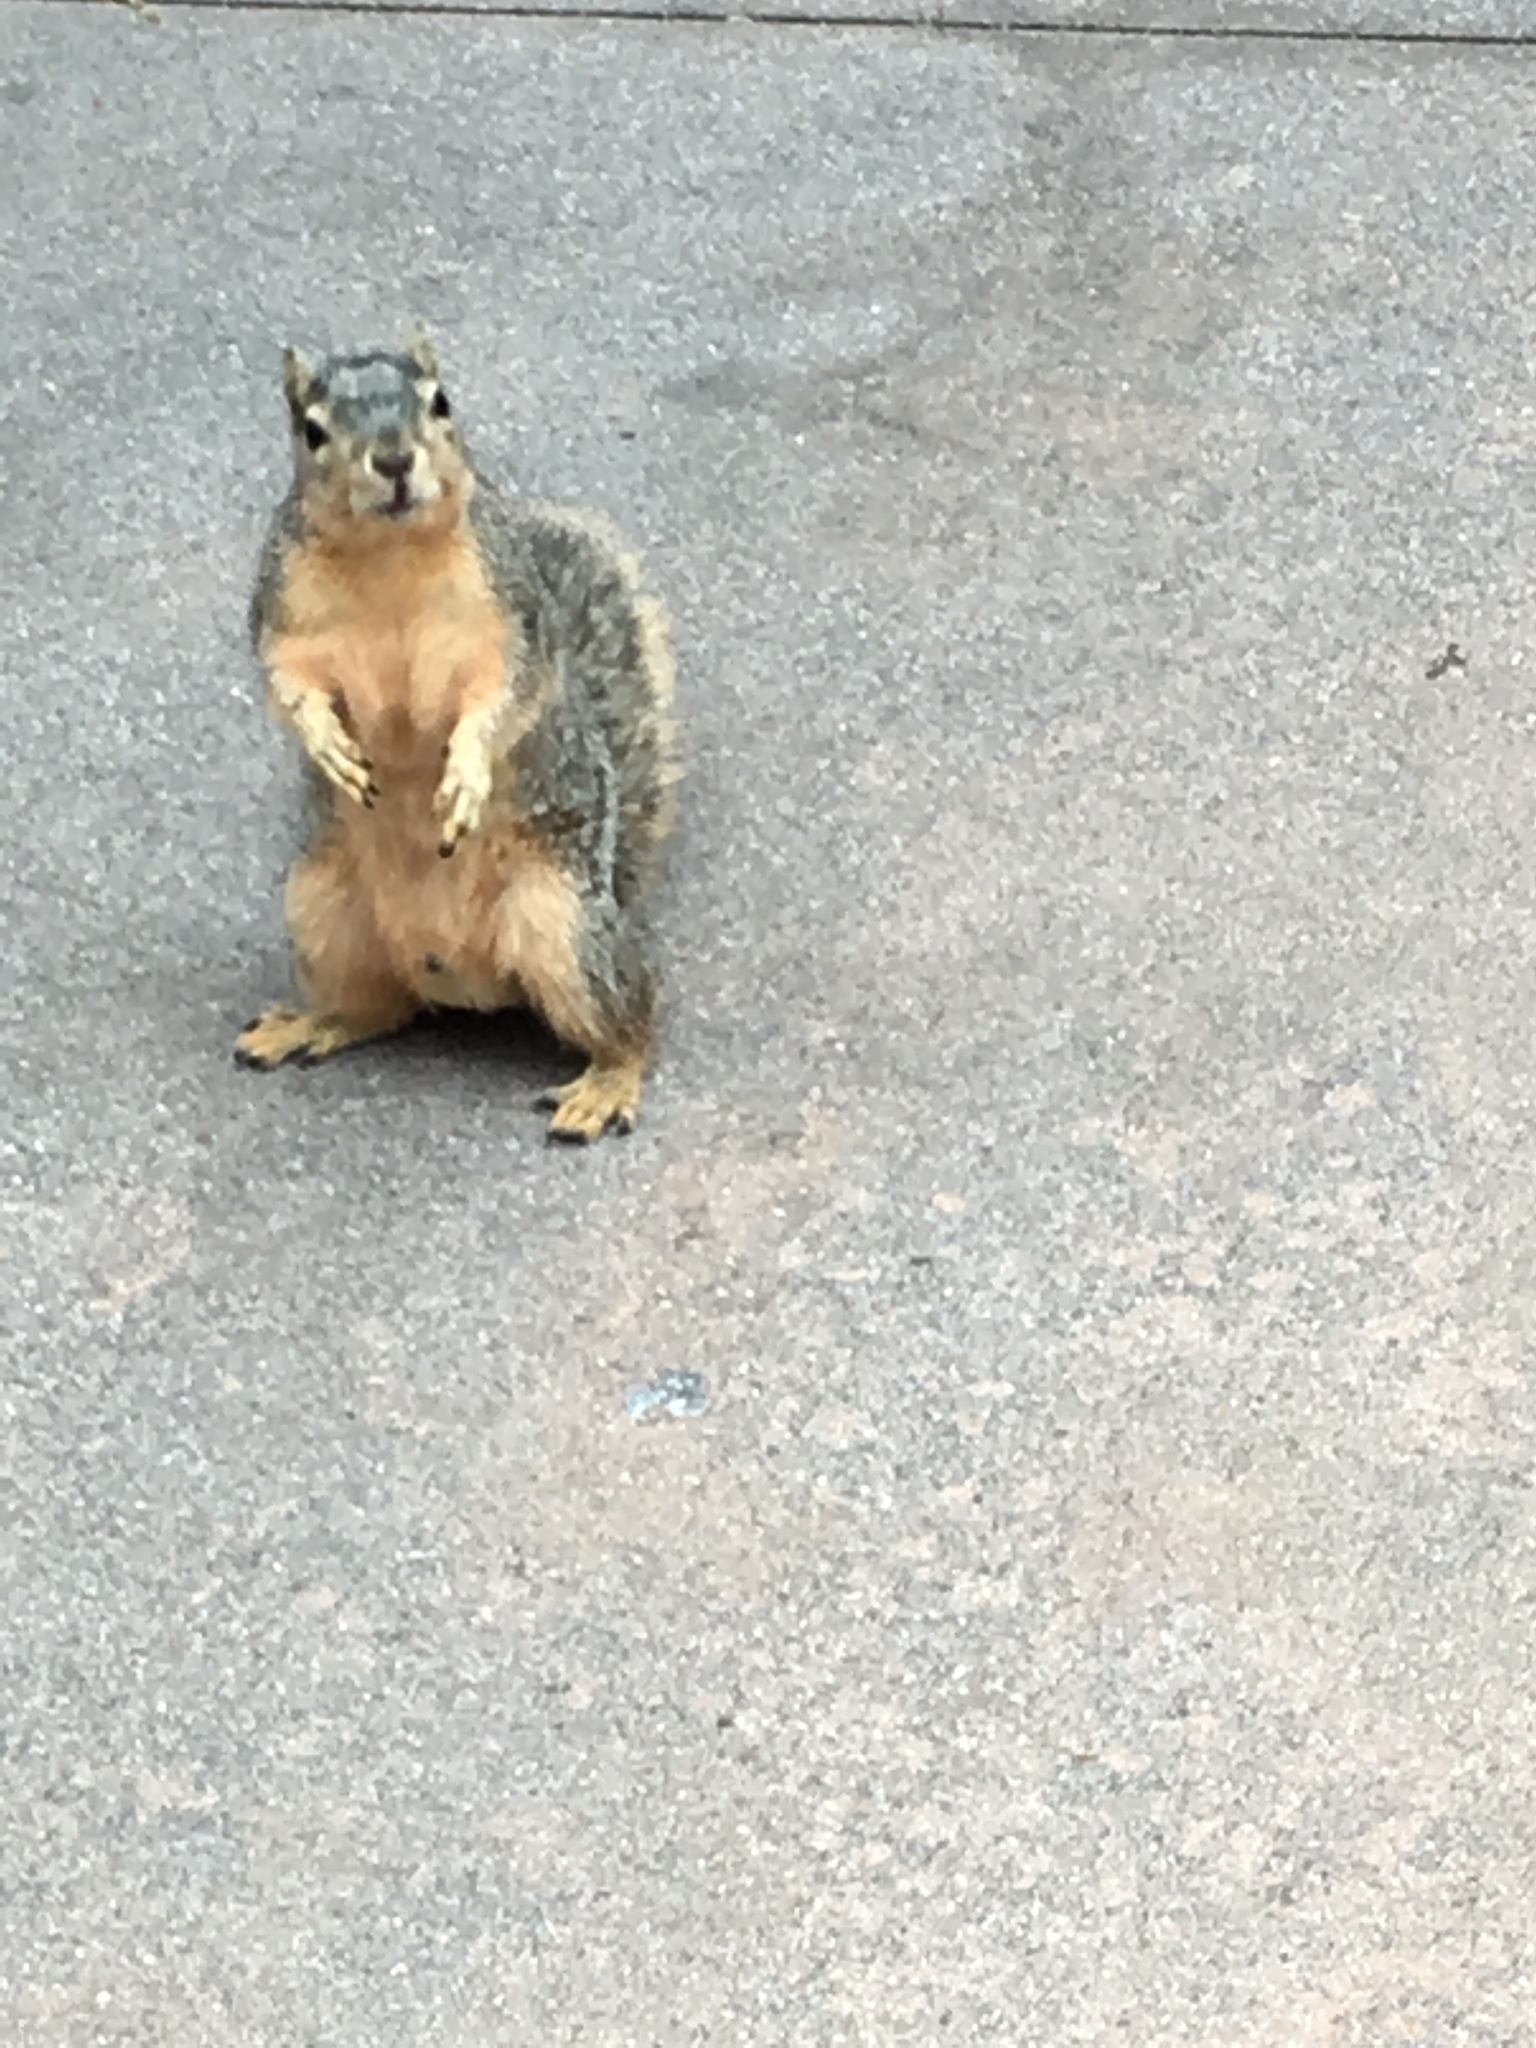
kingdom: Animalia
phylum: Chordata
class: Mammalia
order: Rodentia
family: Sciuridae
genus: Sciurus
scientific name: Sciurus niger
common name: Fox squirrel
